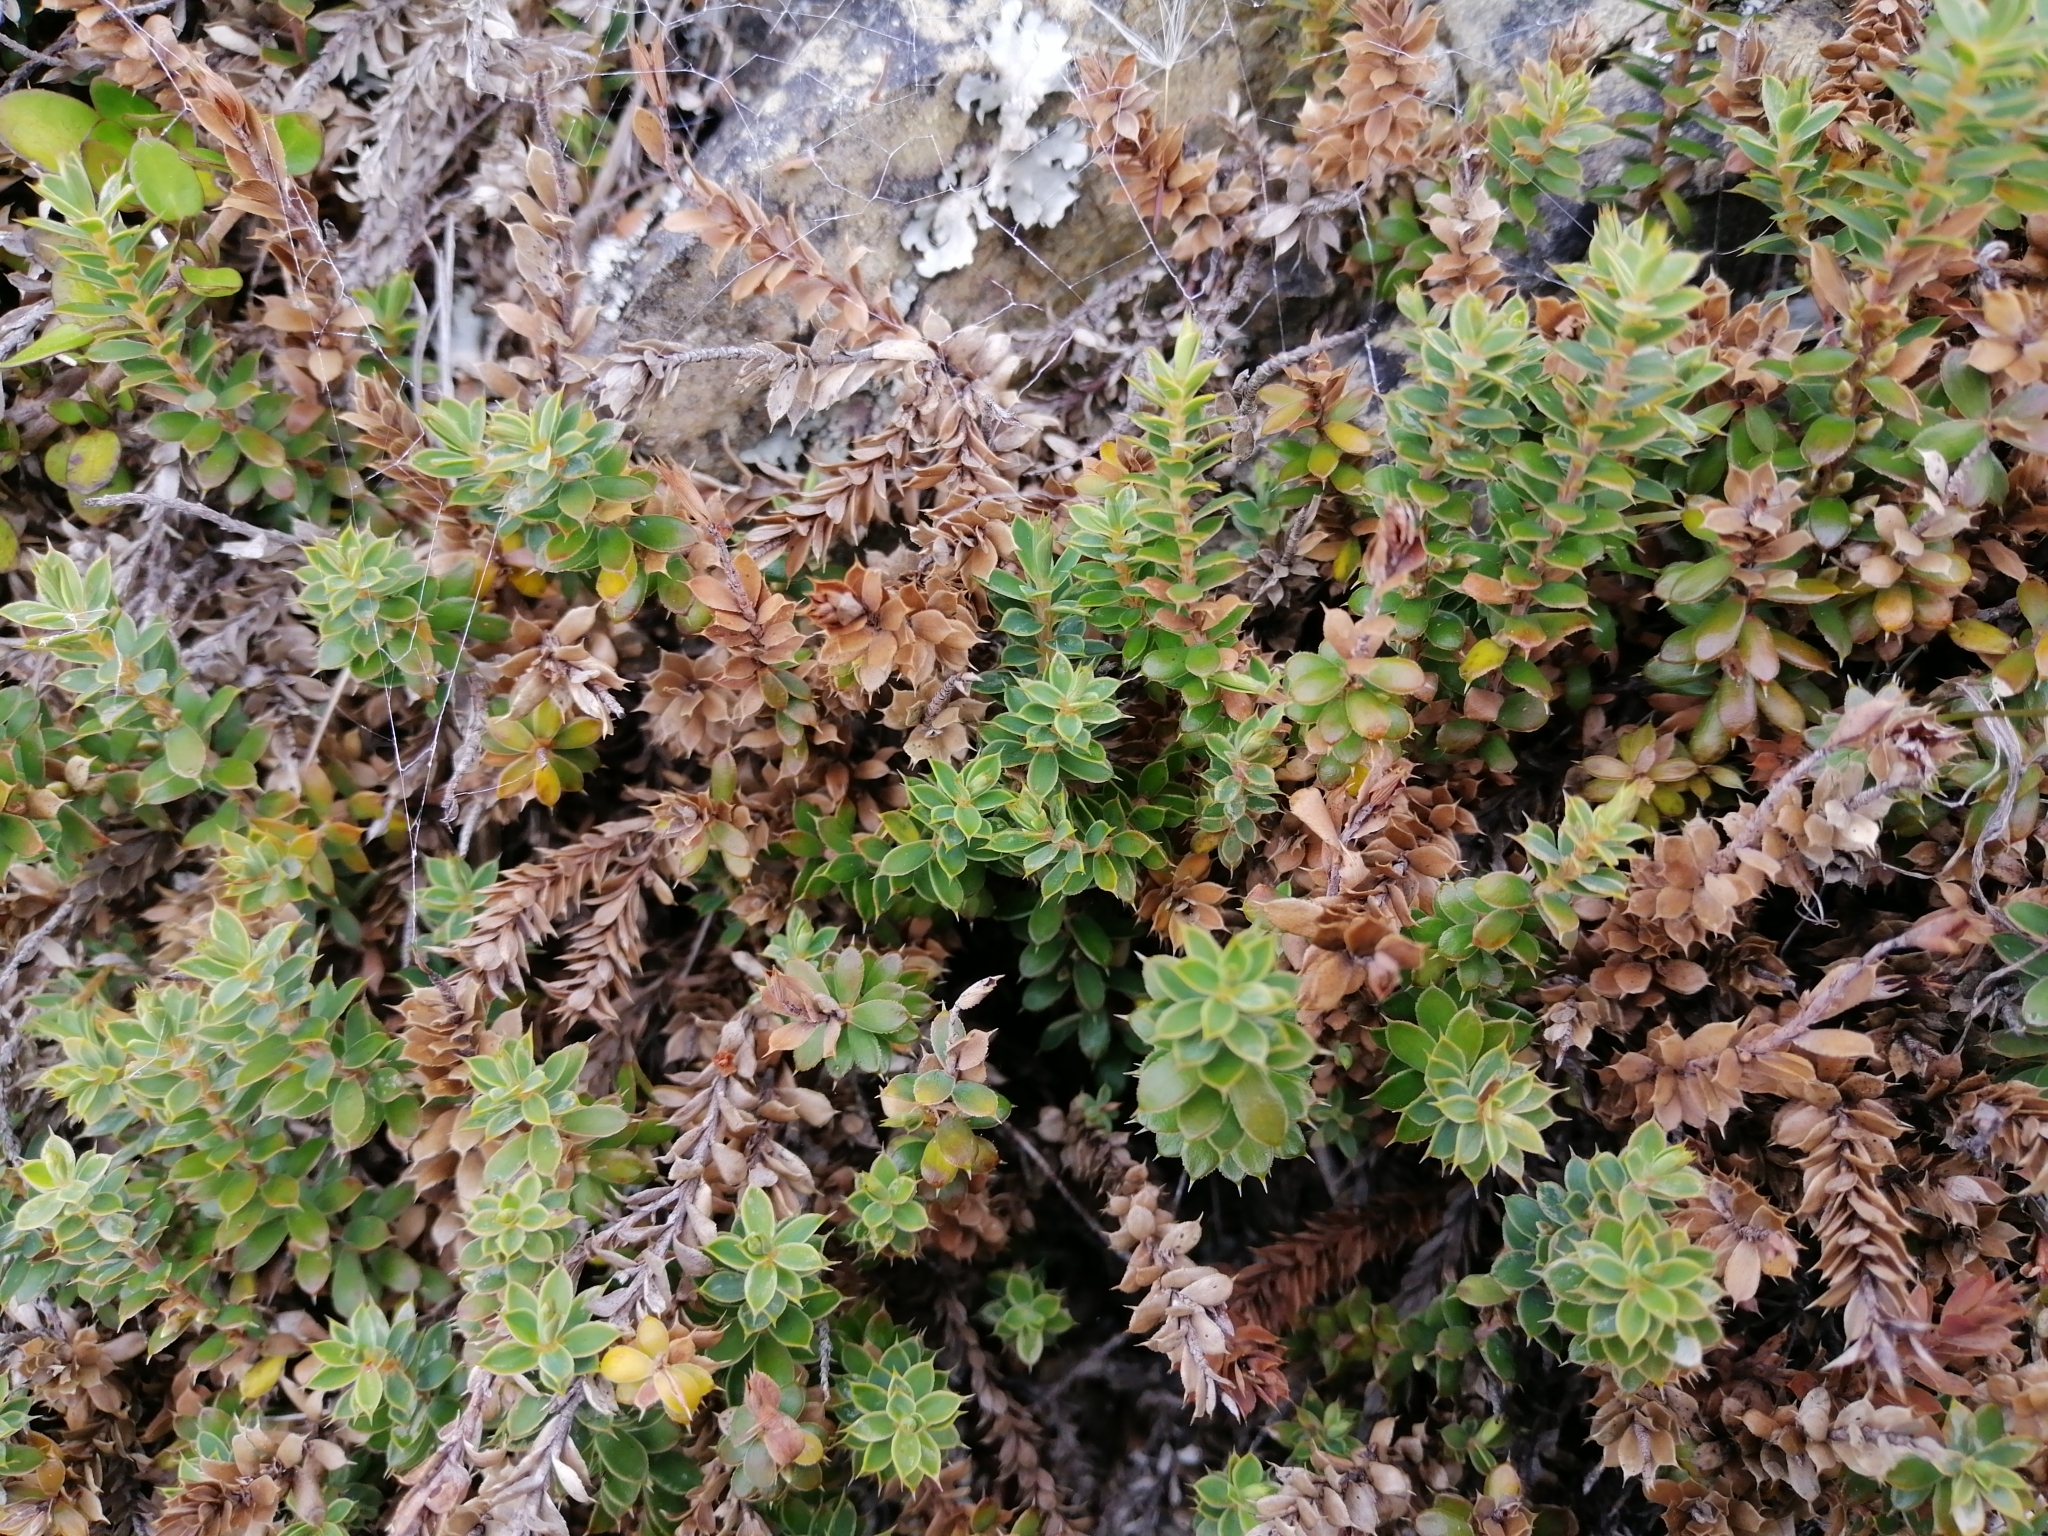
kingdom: Plantae
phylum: Tracheophyta
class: Magnoliopsida
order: Ericales
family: Ericaceae
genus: Styphelia
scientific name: Styphelia nesophila
